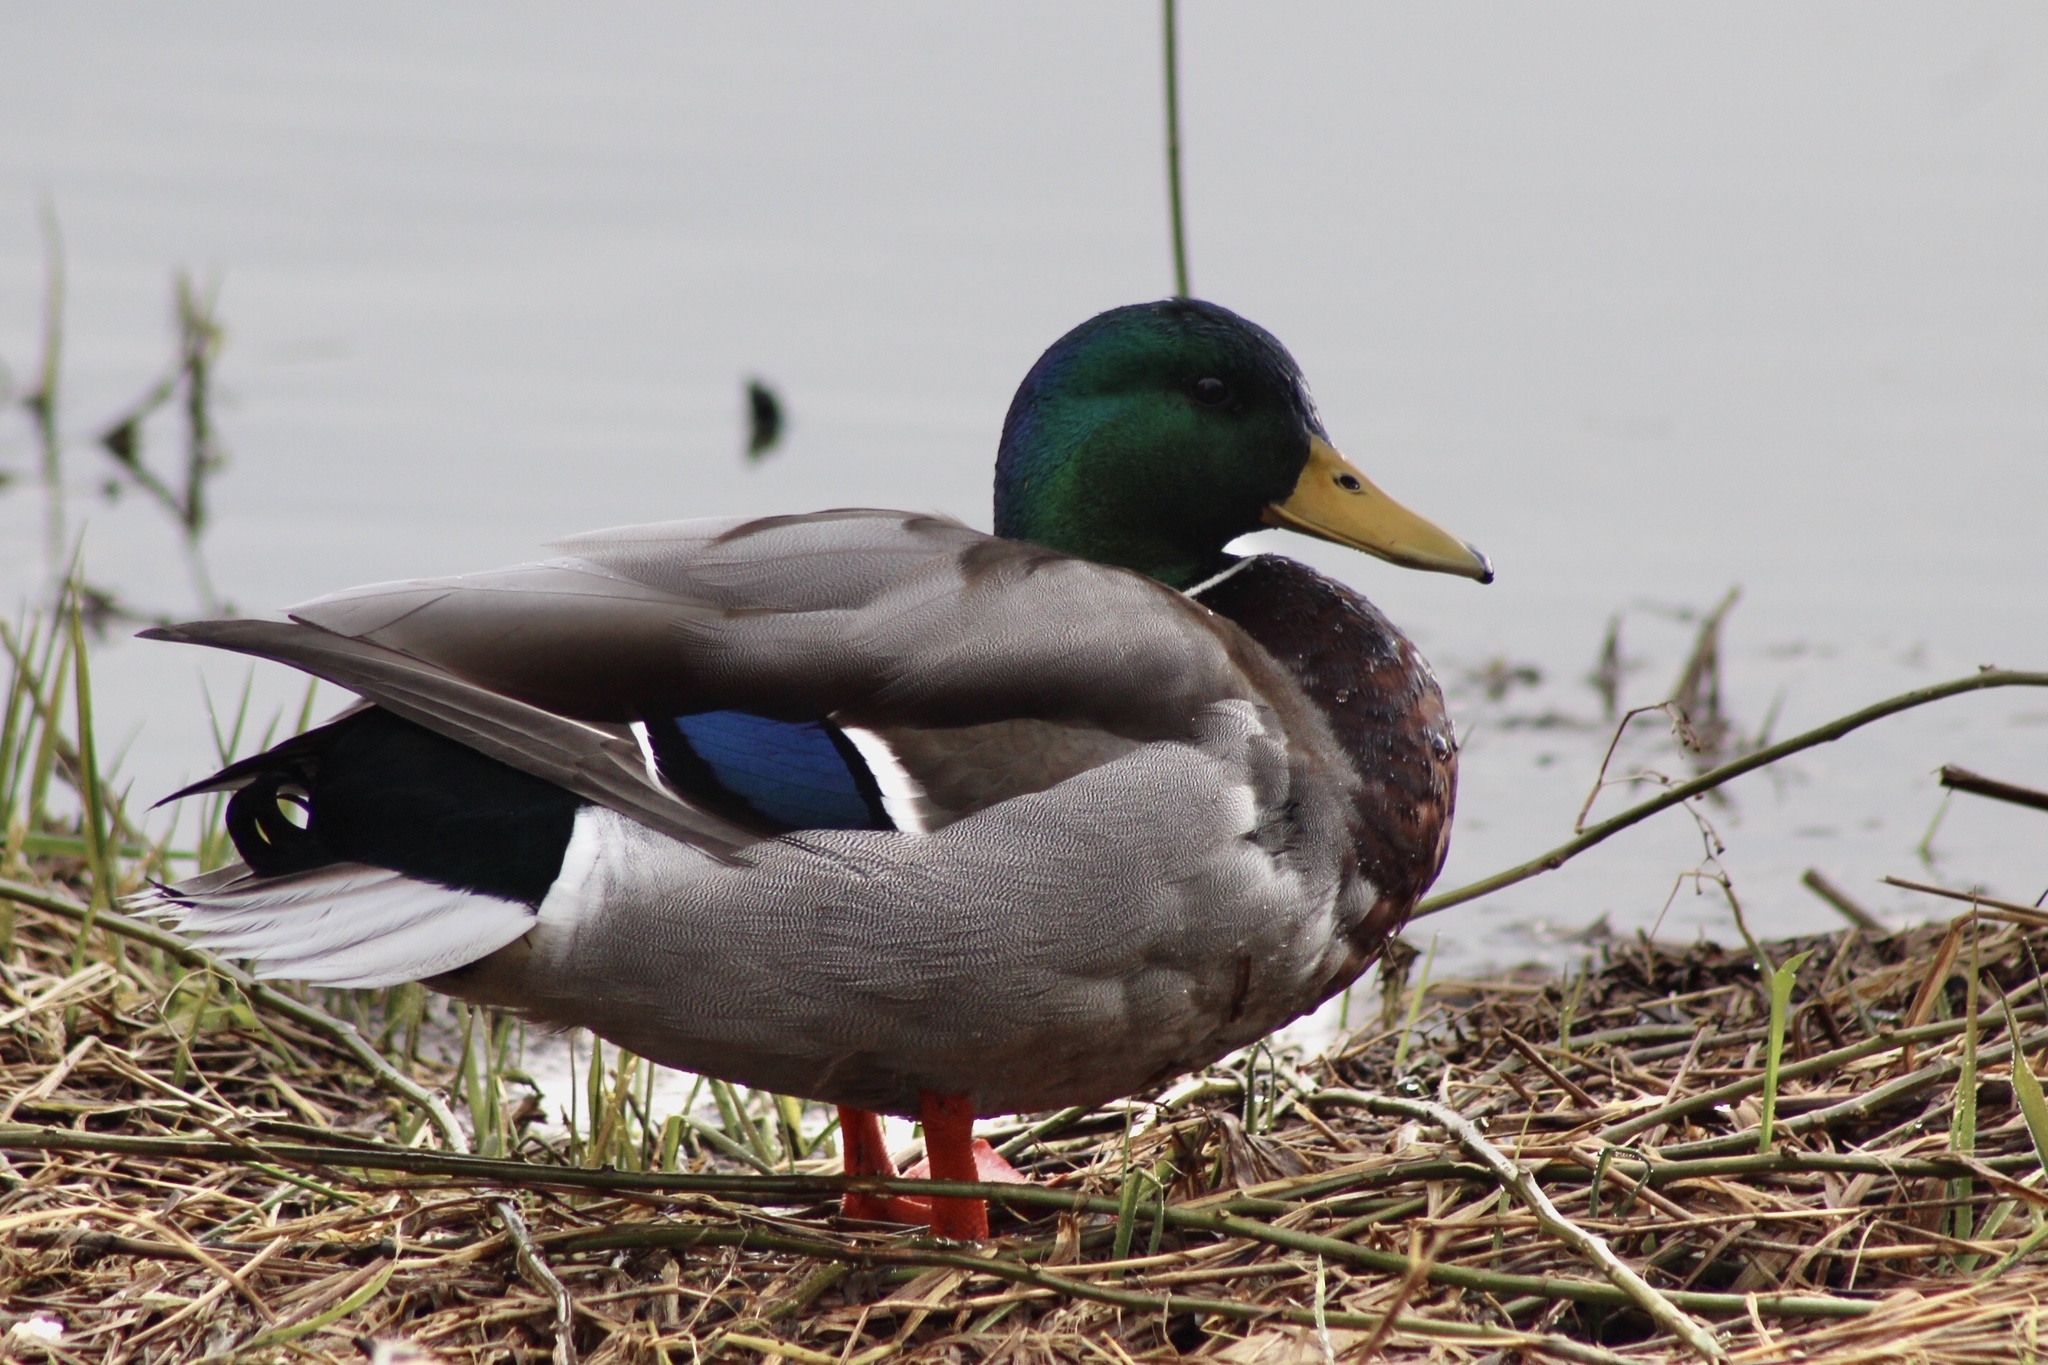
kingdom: Animalia
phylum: Chordata
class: Aves
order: Anseriformes
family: Anatidae
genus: Anas
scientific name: Anas platyrhynchos
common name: Mallard
